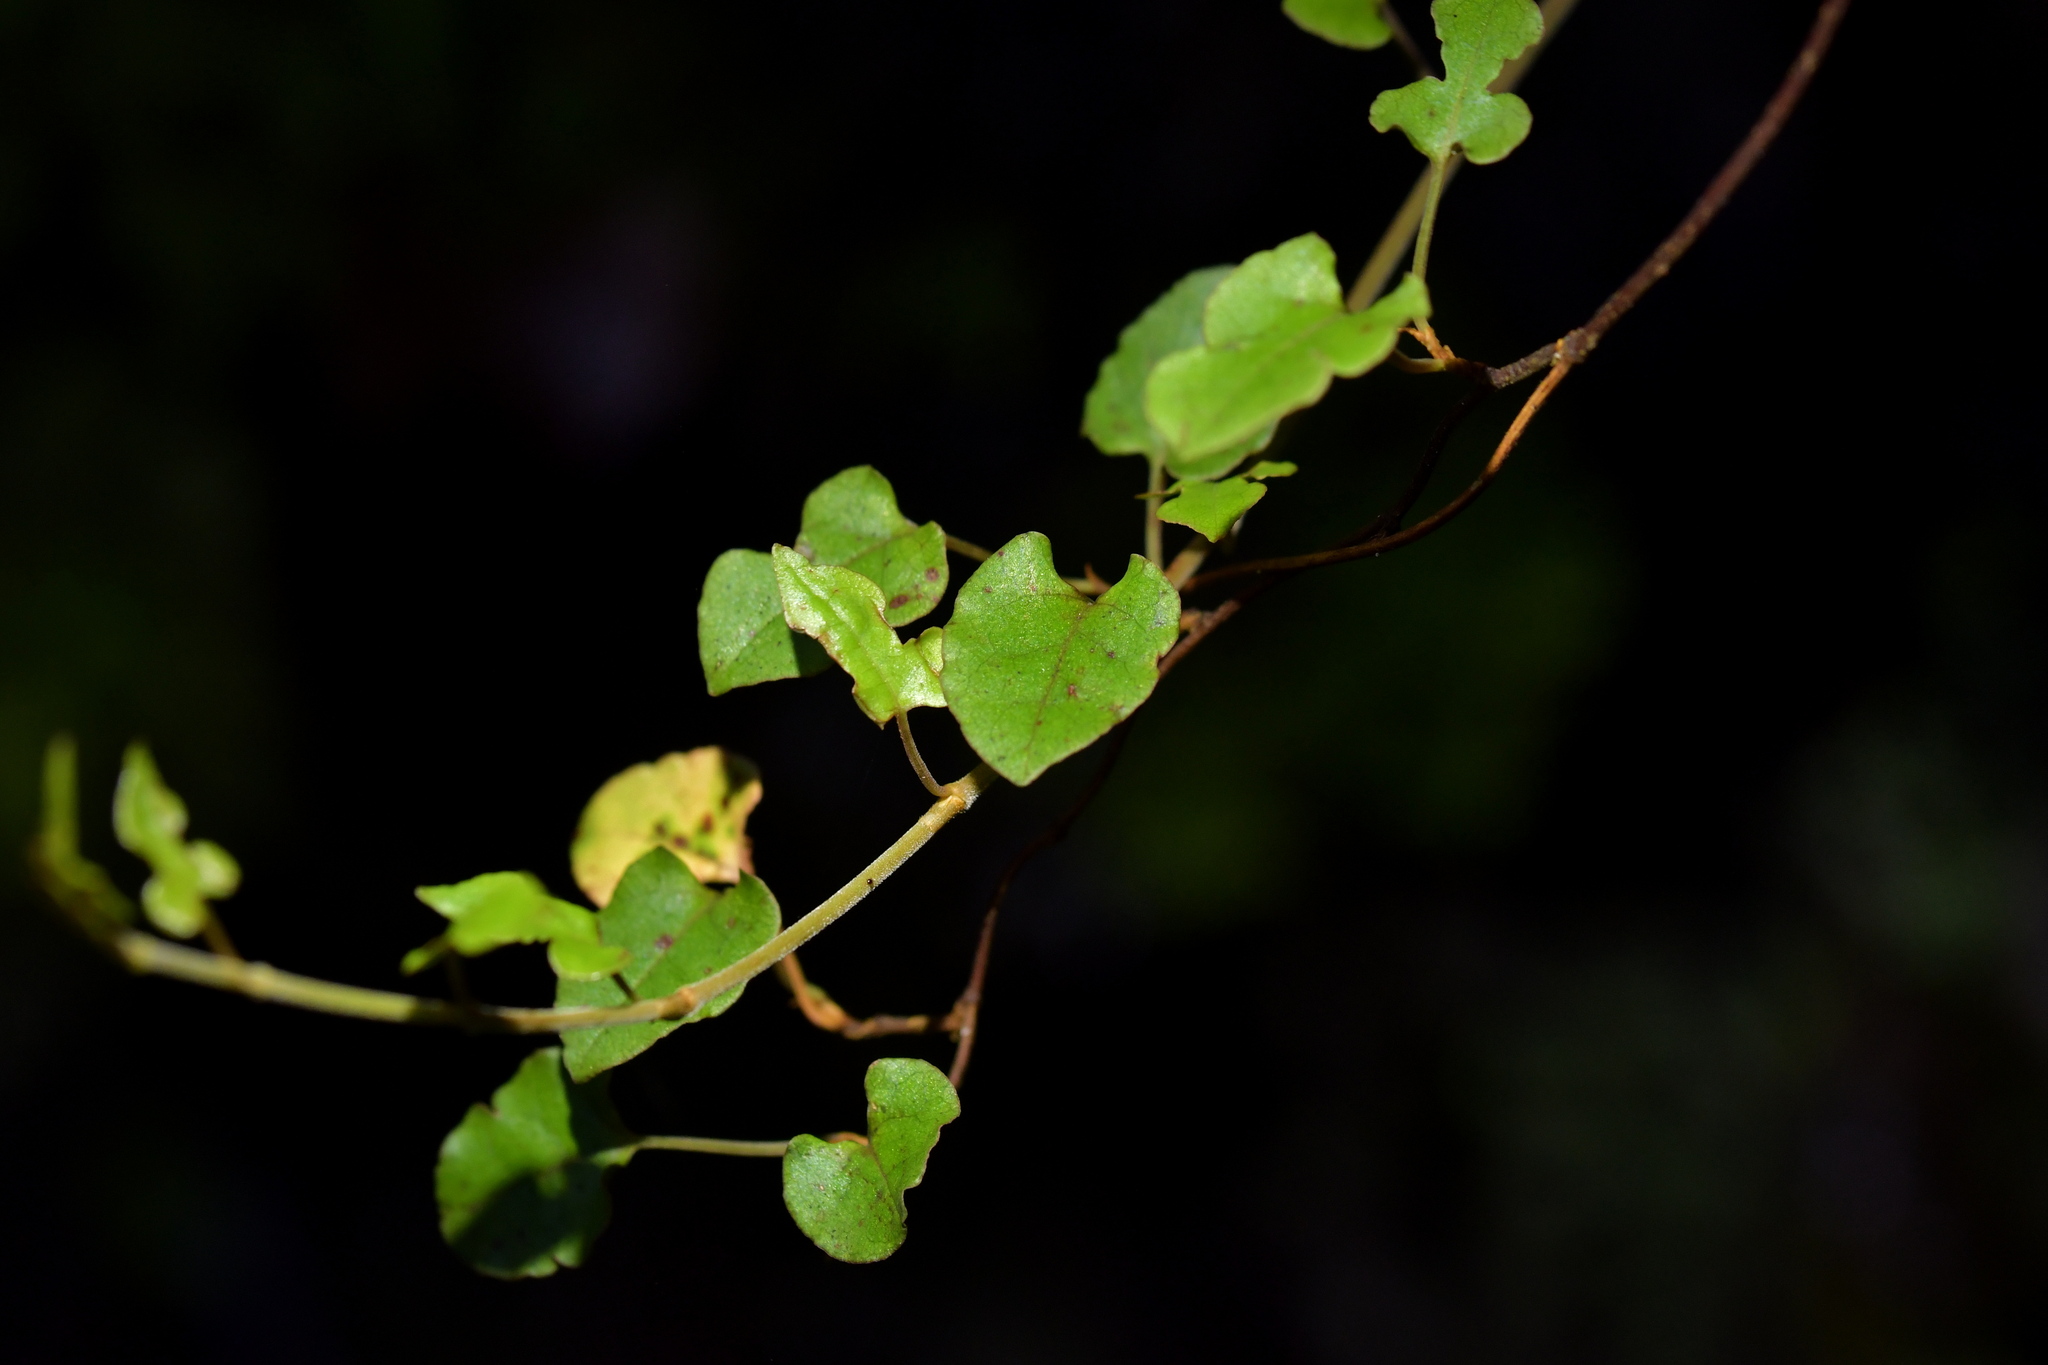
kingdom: Plantae
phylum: Tracheophyta
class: Magnoliopsida
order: Caryophyllales
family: Polygonaceae
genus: Muehlenbeckia
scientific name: Muehlenbeckia australis
